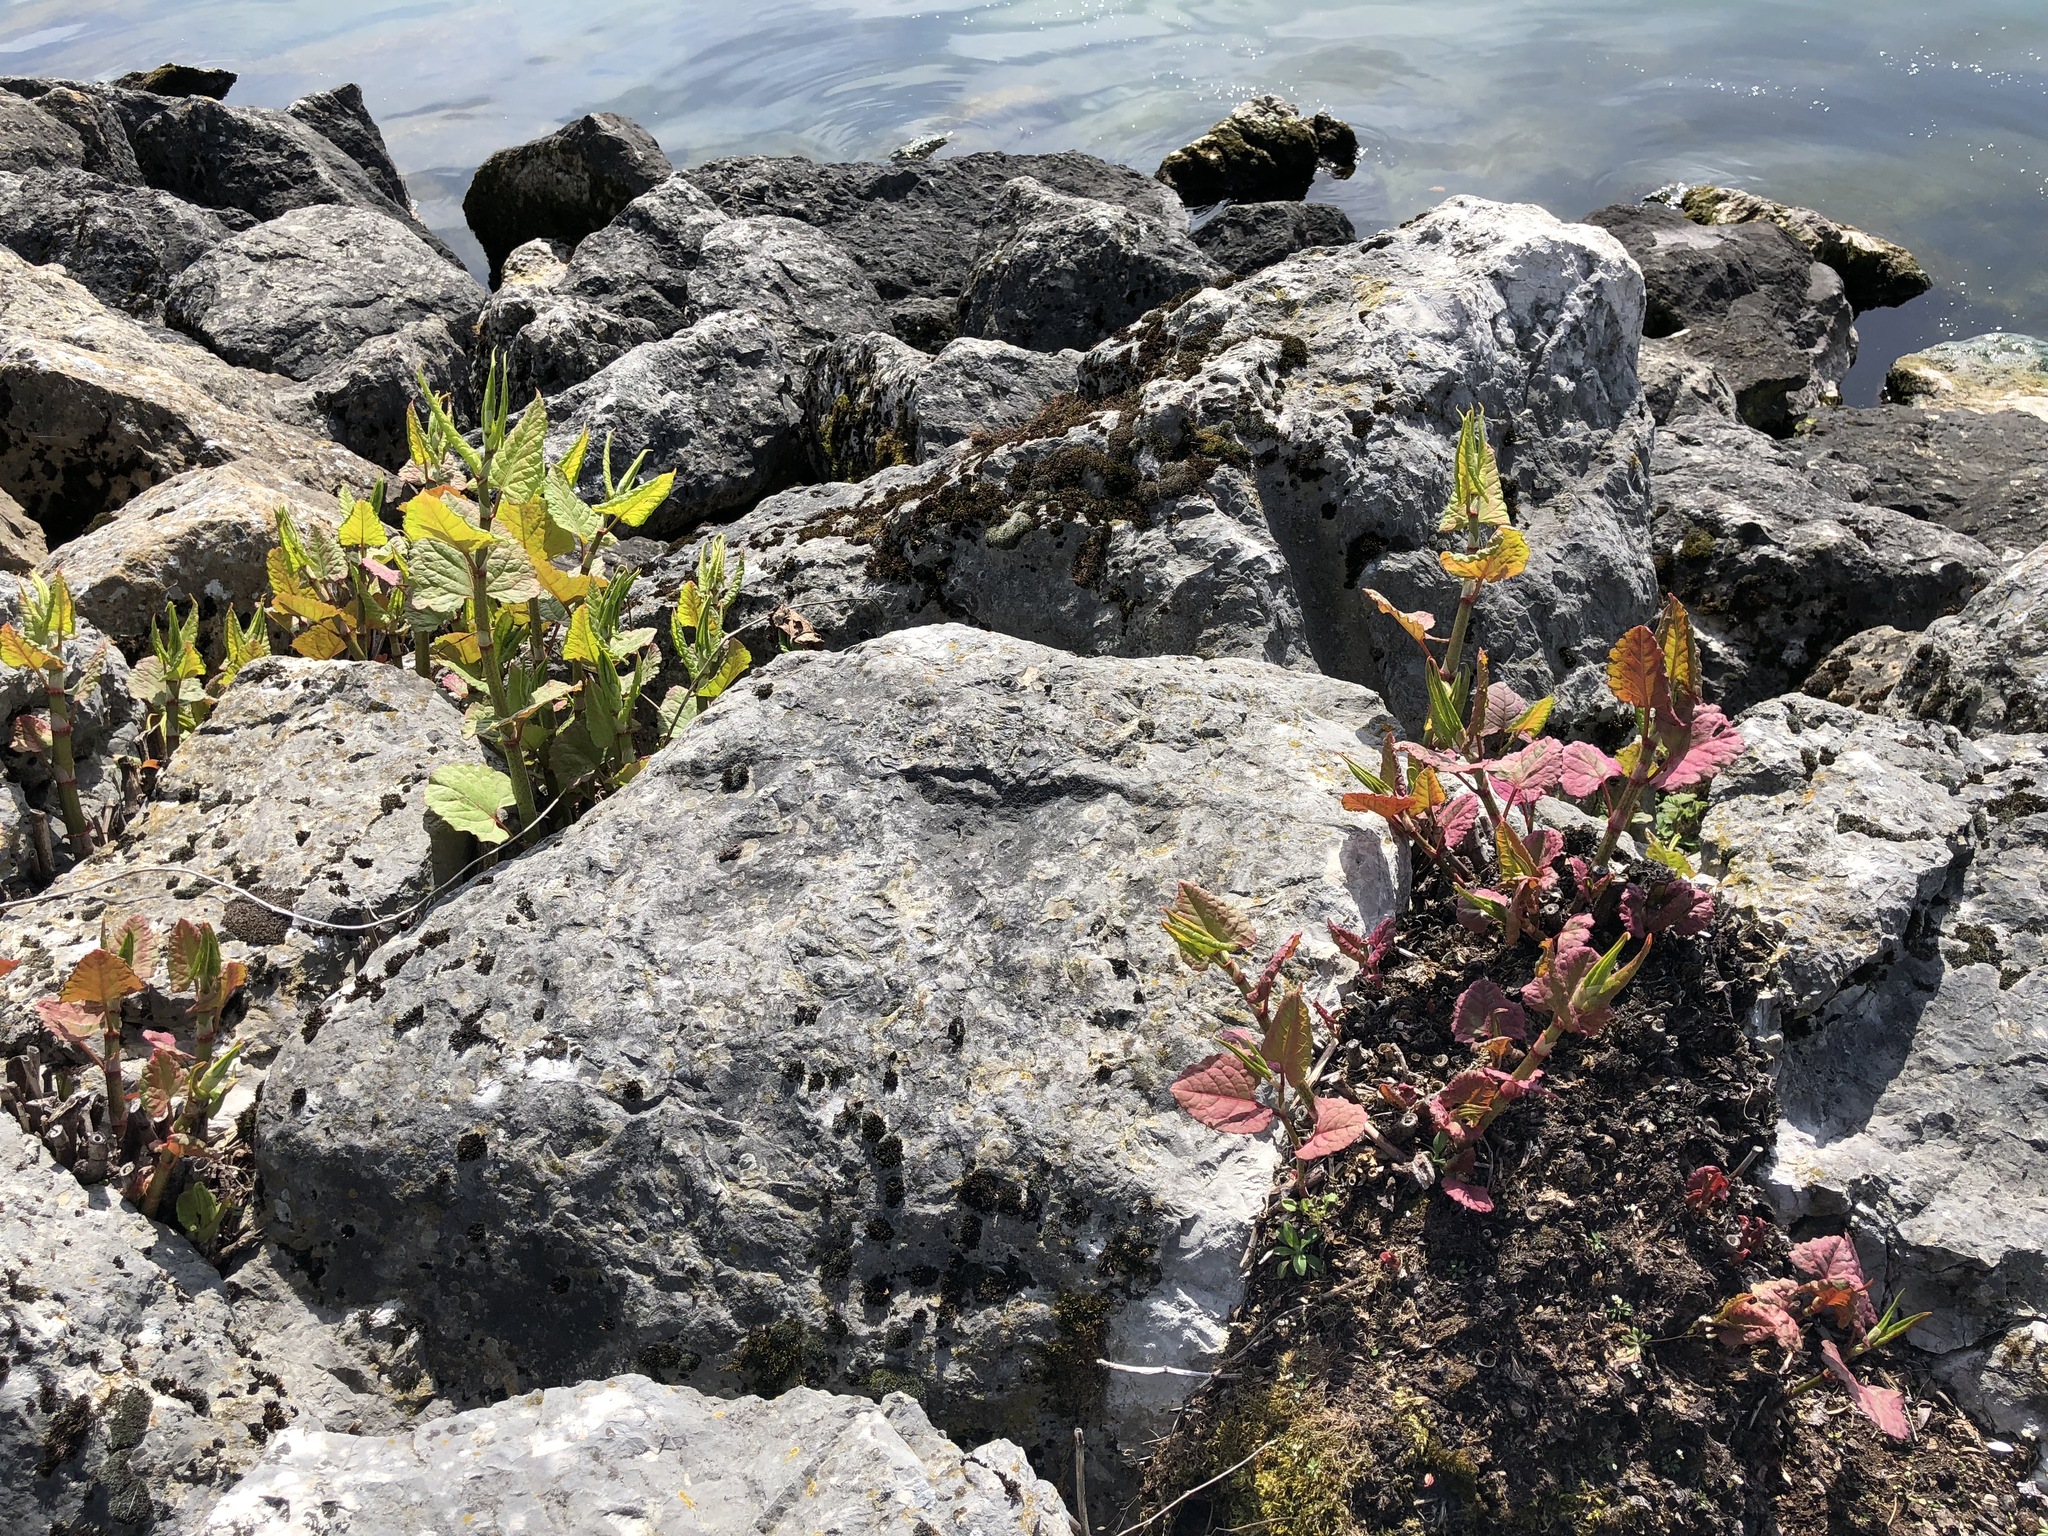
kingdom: Plantae
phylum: Tracheophyta
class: Magnoliopsida
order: Caryophyllales
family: Polygonaceae
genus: Reynoutria
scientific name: Reynoutria japonica
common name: Japanese knotweed
